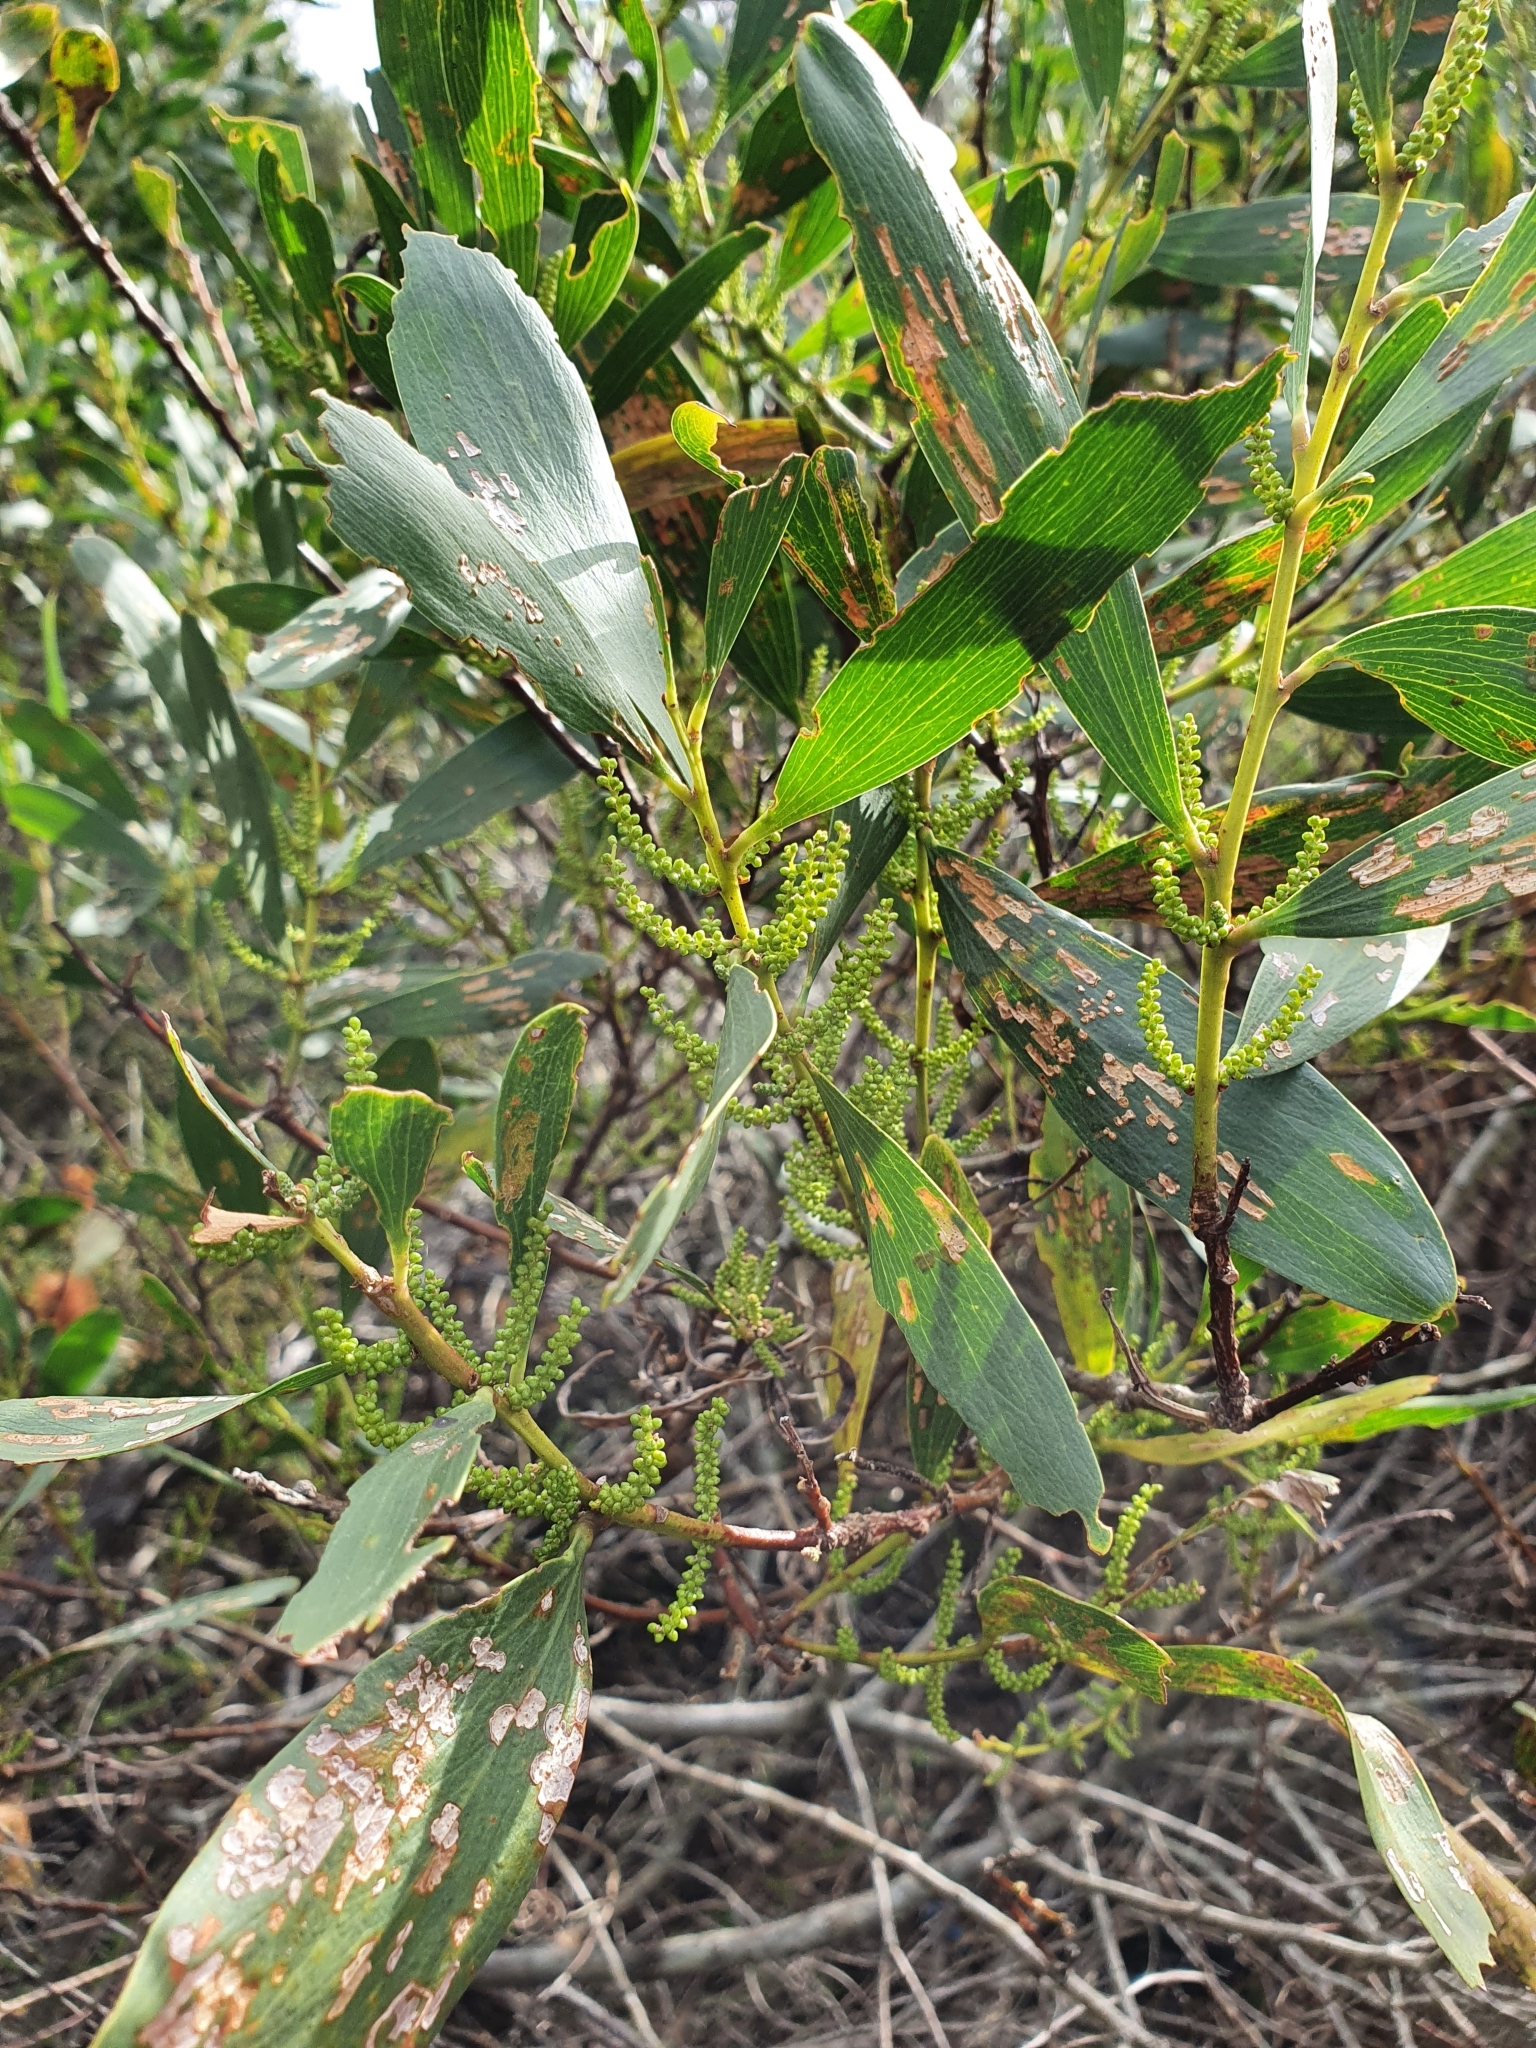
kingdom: Plantae
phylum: Tracheophyta
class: Magnoliopsida
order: Fabales
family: Fabaceae
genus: Acacia
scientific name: Acacia longifolia
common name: Sydney golden wattle
